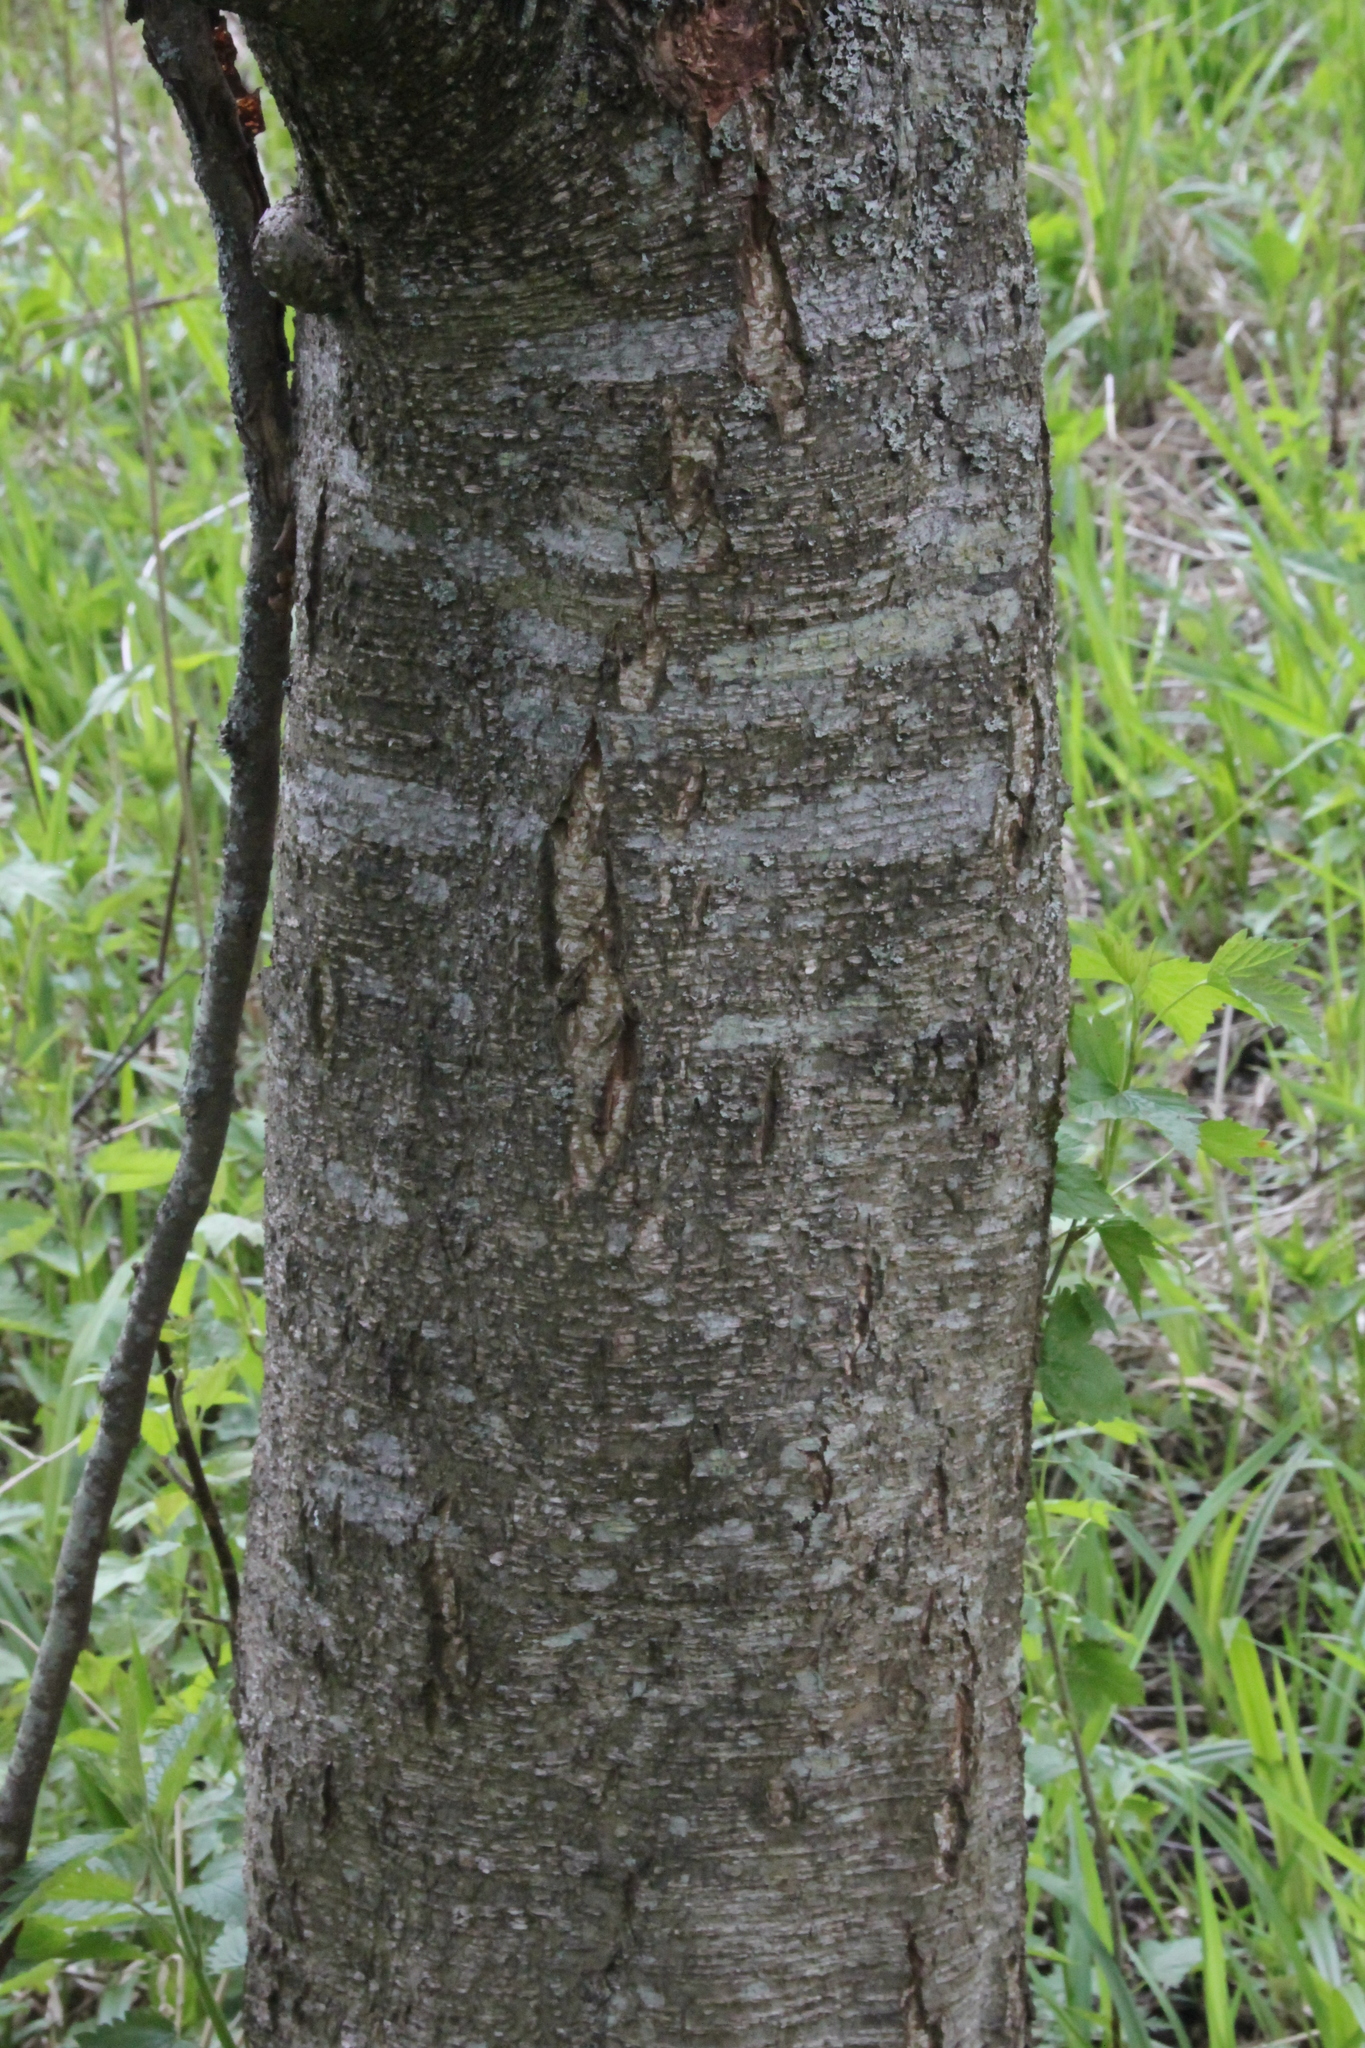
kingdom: Plantae
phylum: Tracheophyta
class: Magnoliopsida
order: Fagales
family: Betulaceae
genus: Alnus
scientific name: Alnus glutinosa
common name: Black alder
